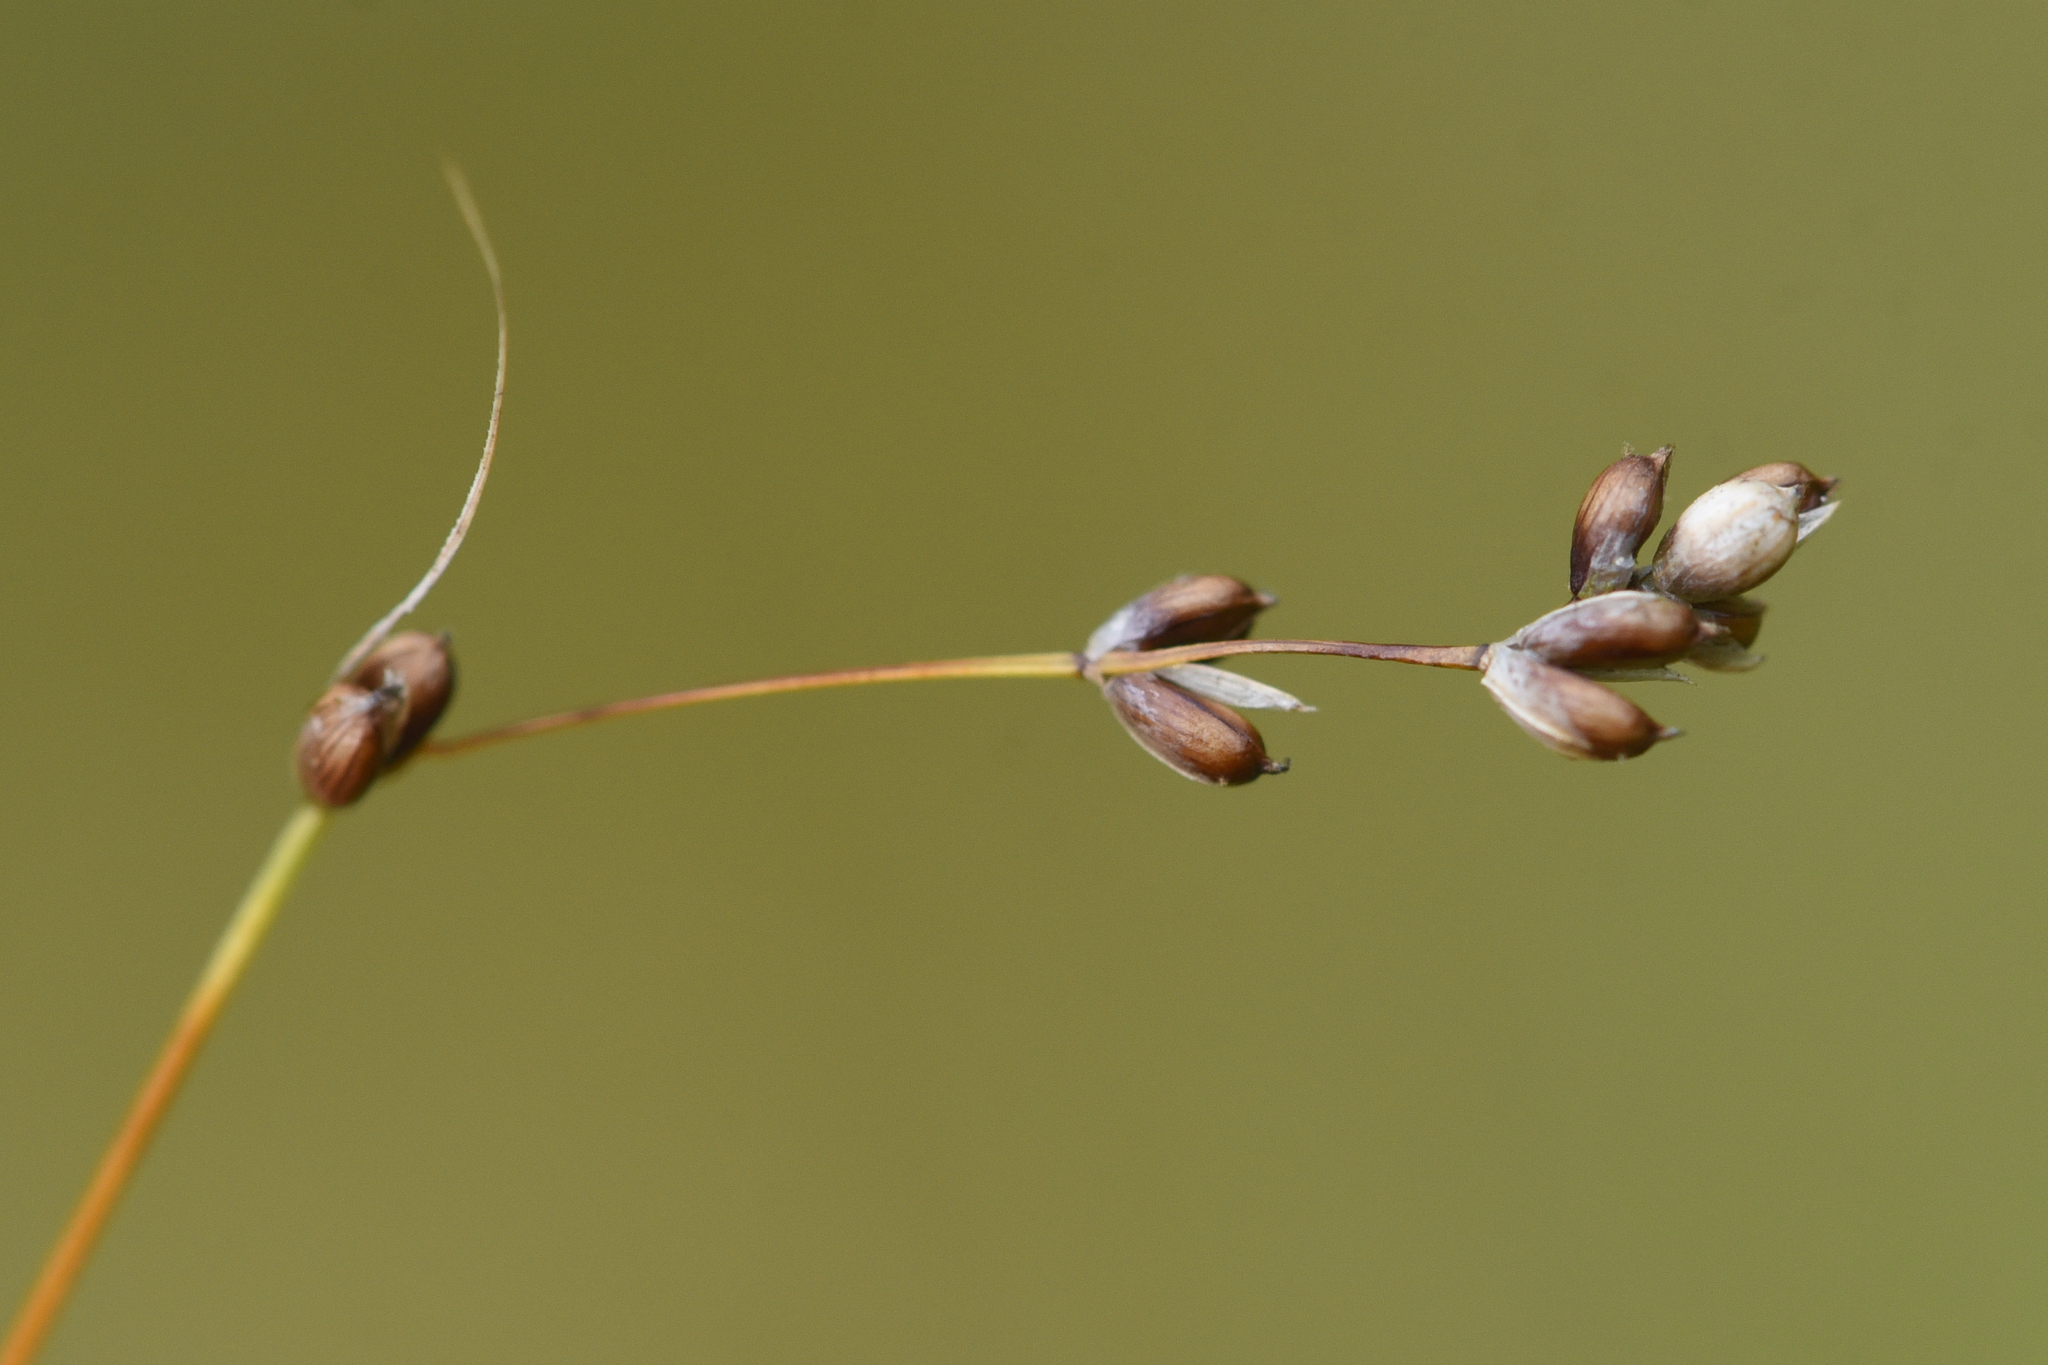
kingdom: Plantae
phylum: Tracheophyta
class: Liliopsida
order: Poales
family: Cyperaceae
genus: Carex
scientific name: Carex disperma
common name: Short-leaved sedge
